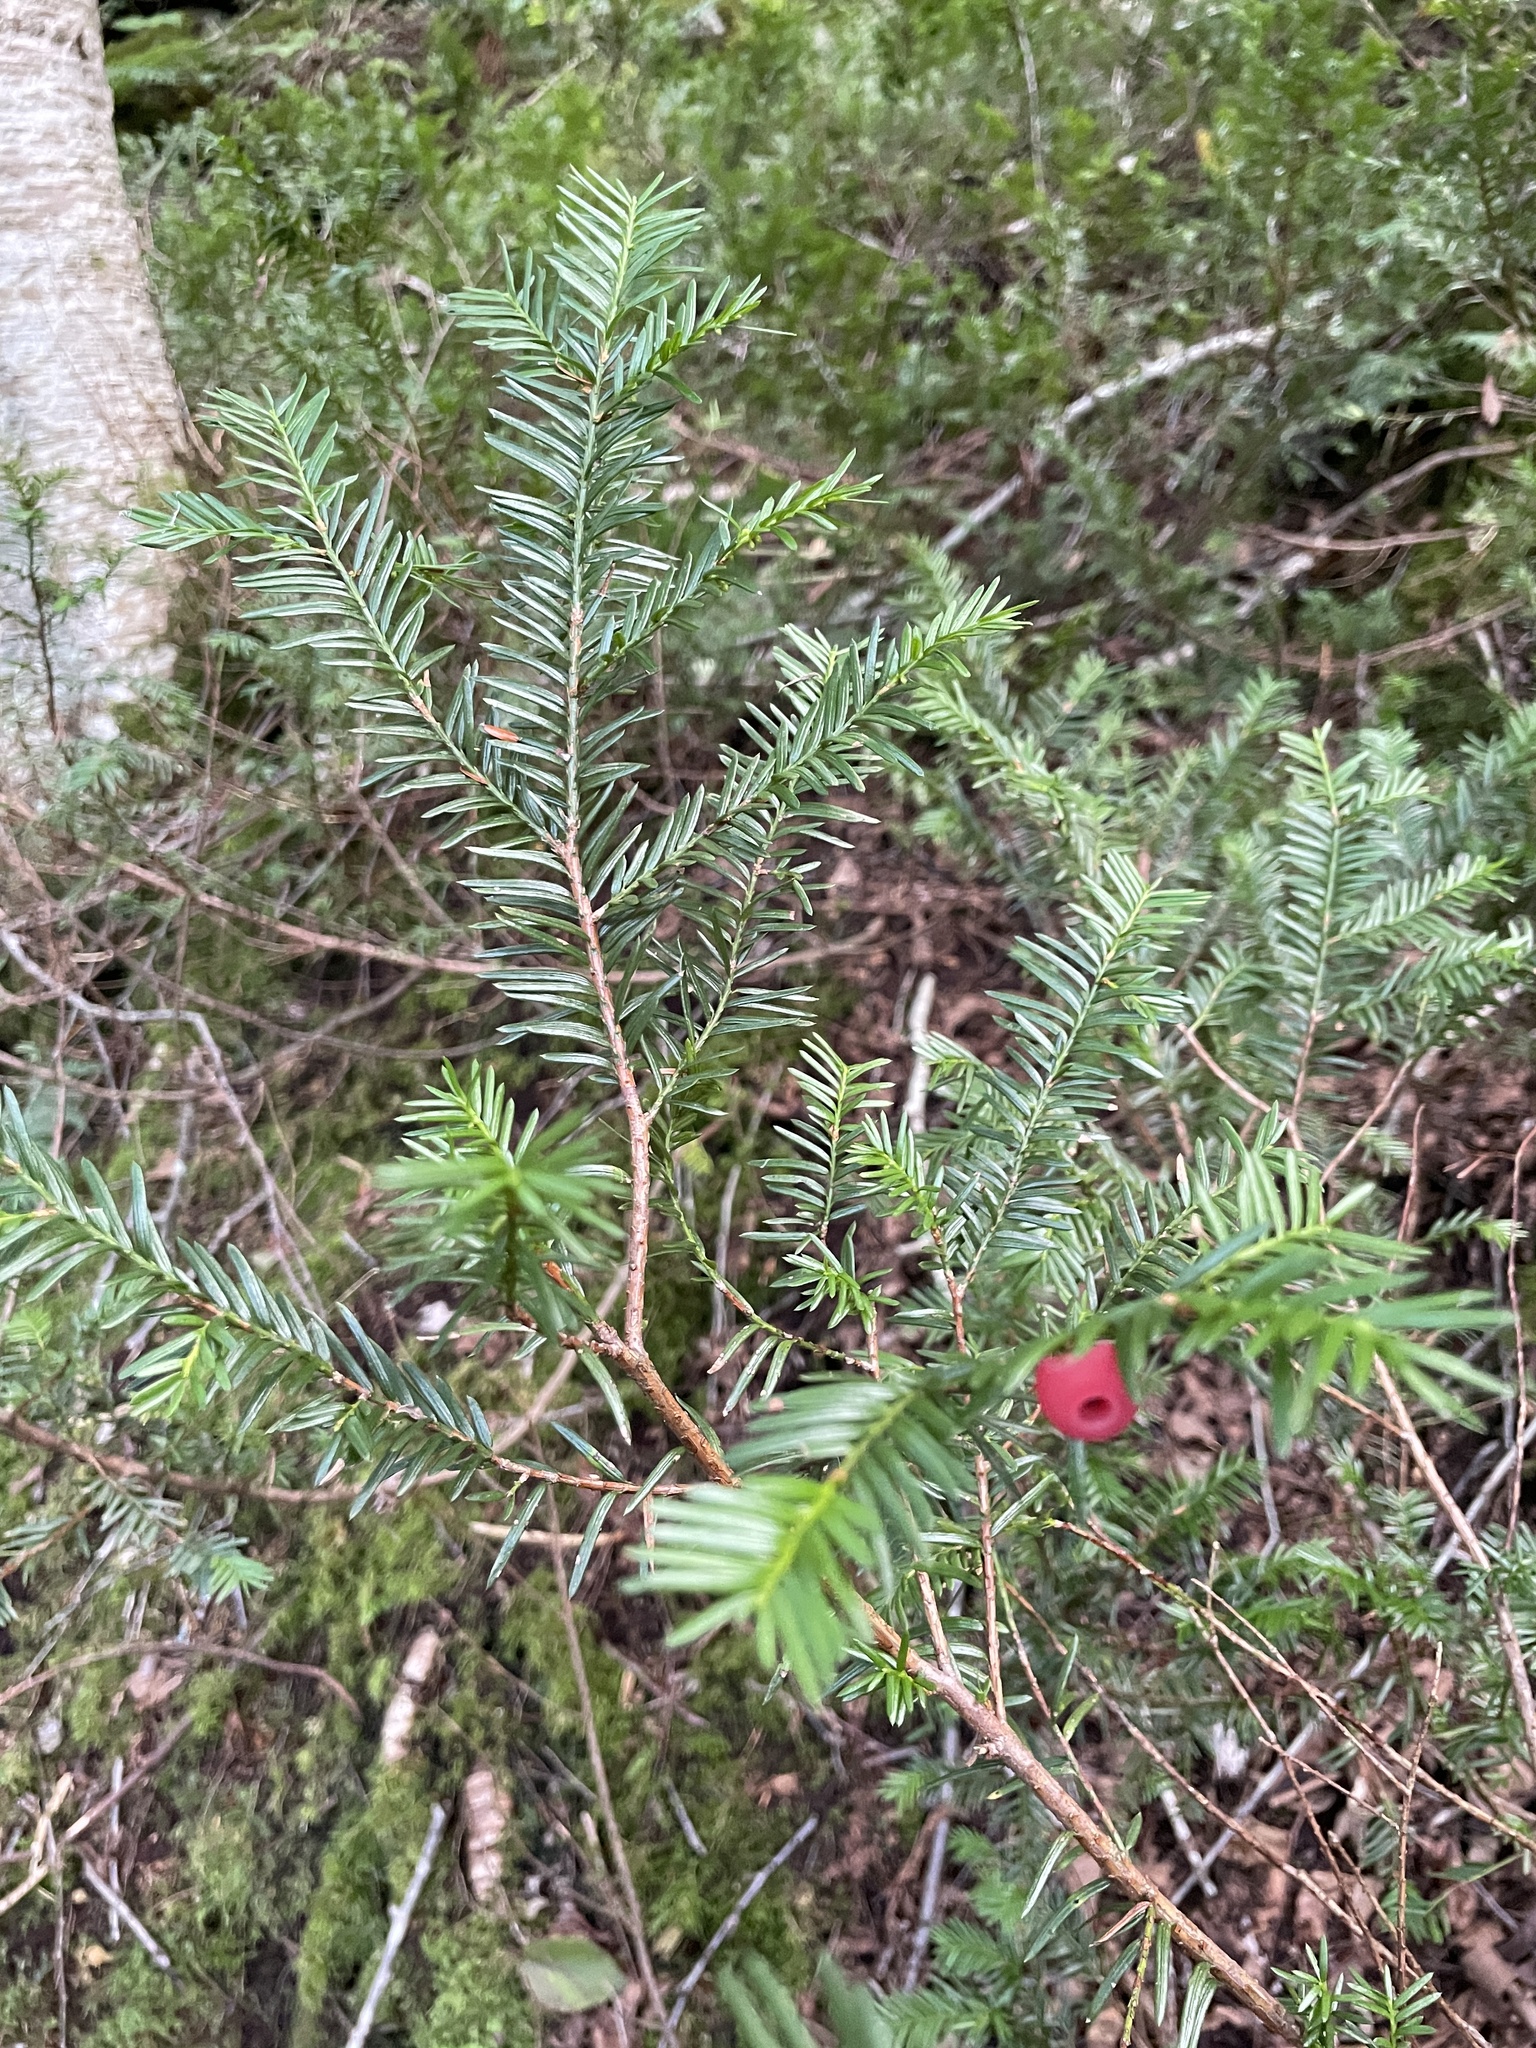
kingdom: Plantae
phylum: Tracheophyta
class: Pinopsida
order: Pinales
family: Taxaceae
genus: Taxus
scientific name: Taxus canadensis
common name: American yew
